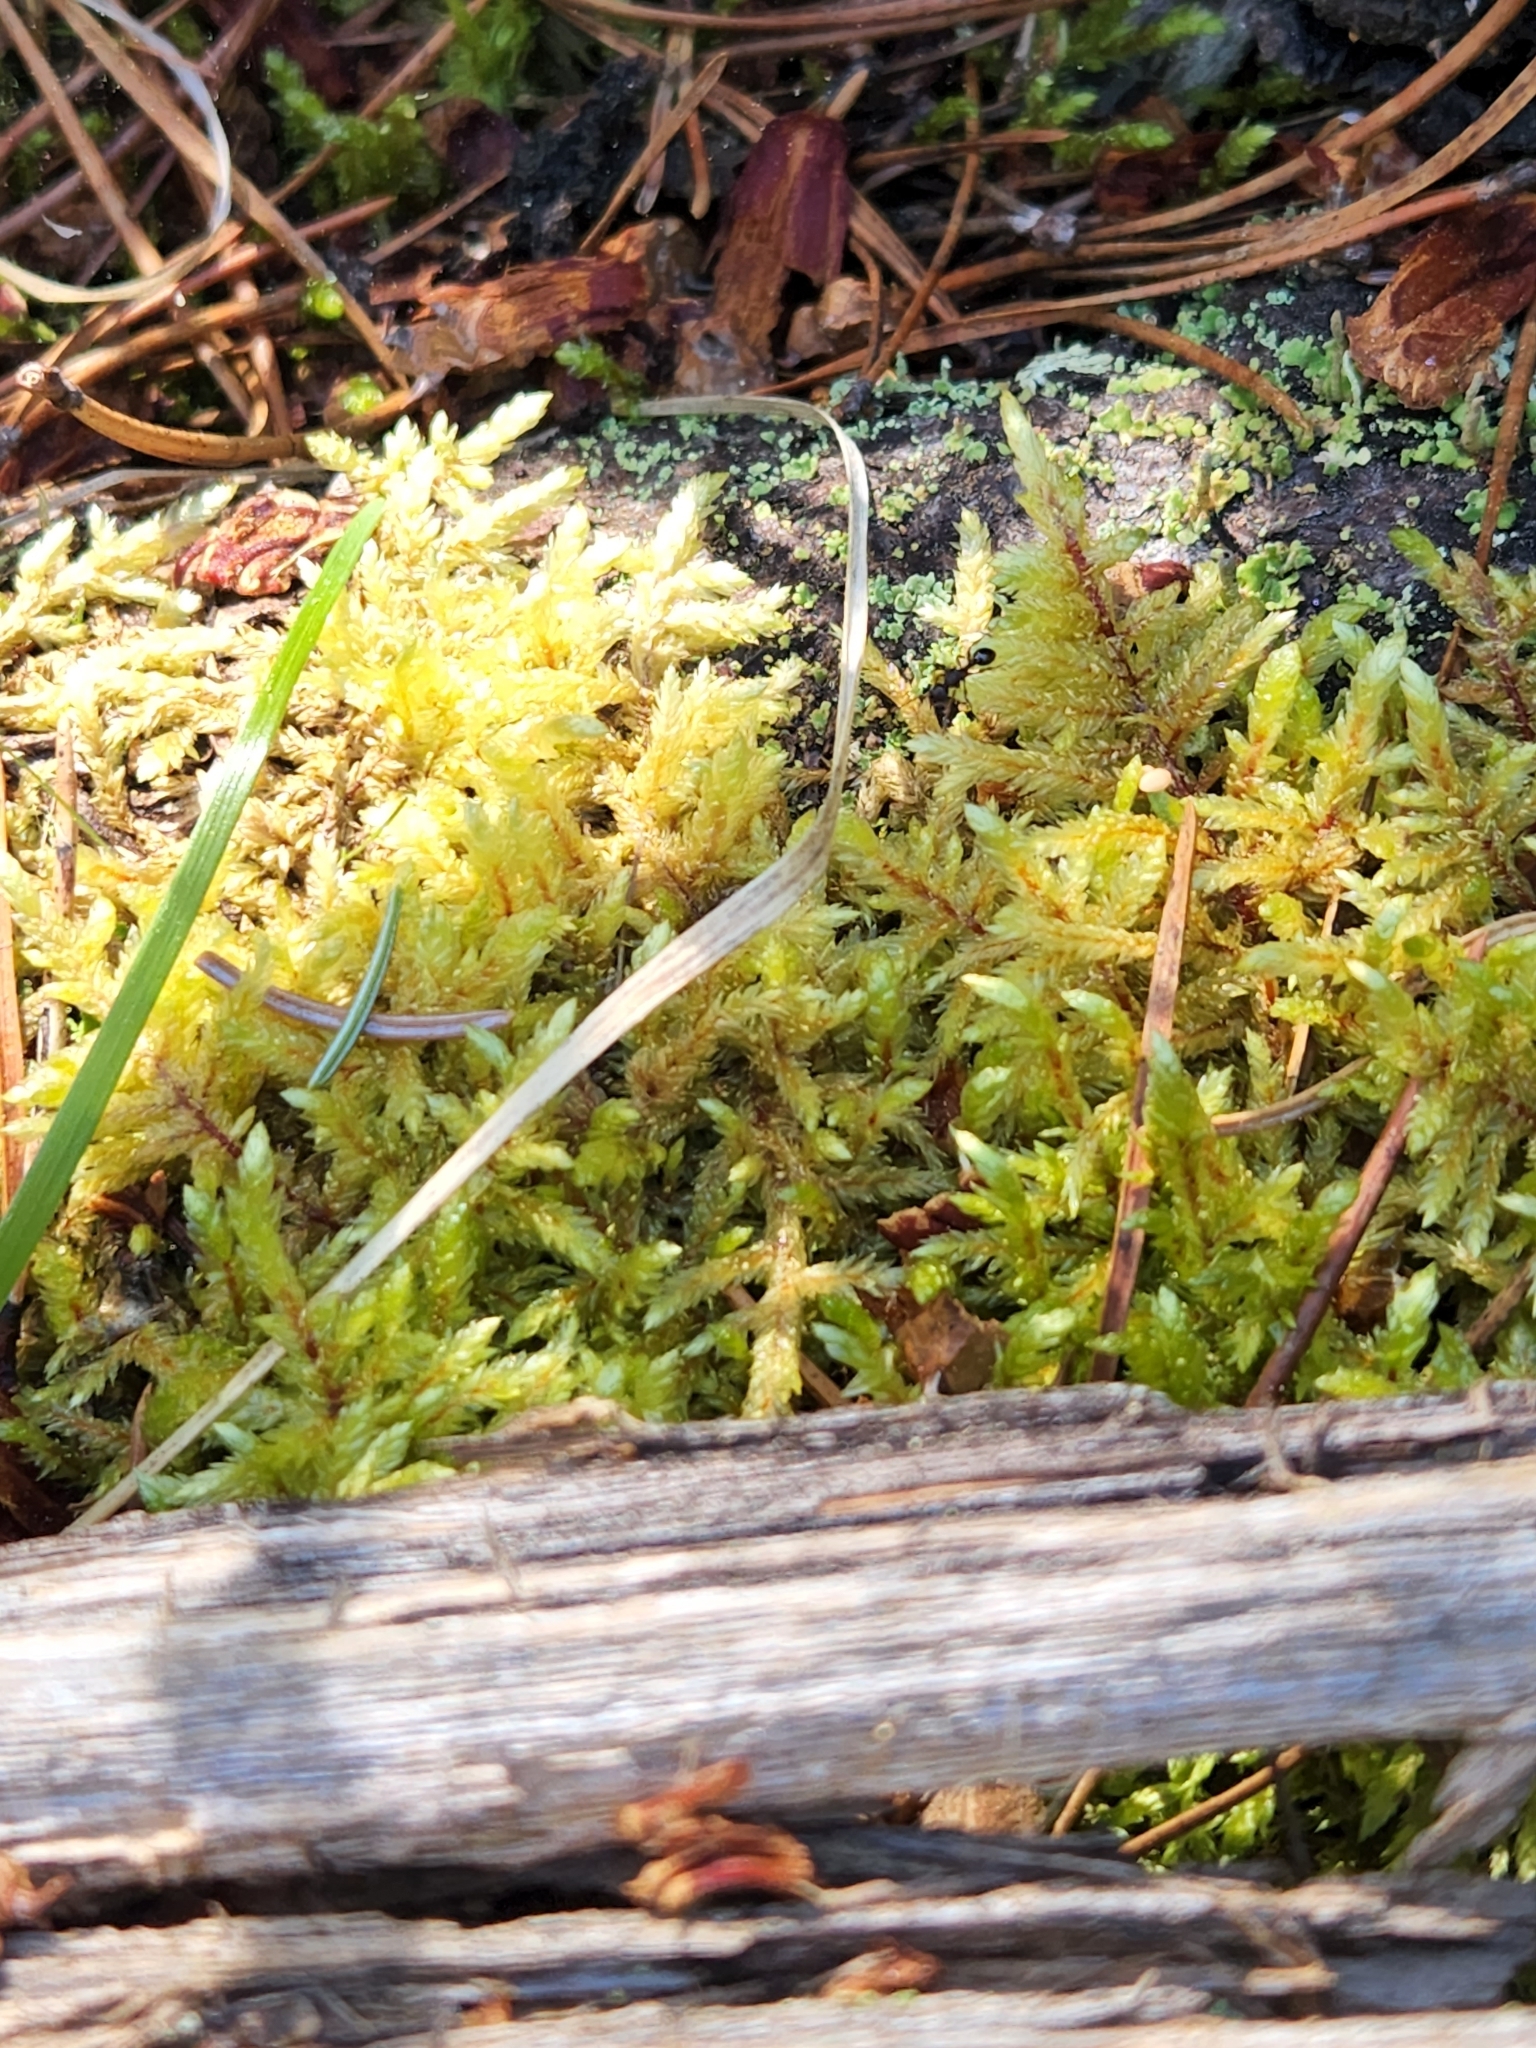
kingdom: Plantae
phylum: Bryophyta
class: Bryopsida
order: Hypnales
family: Hylocomiaceae
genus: Pleurozium
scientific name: Pleurozium schreberi
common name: Red-stemmed feather moss
